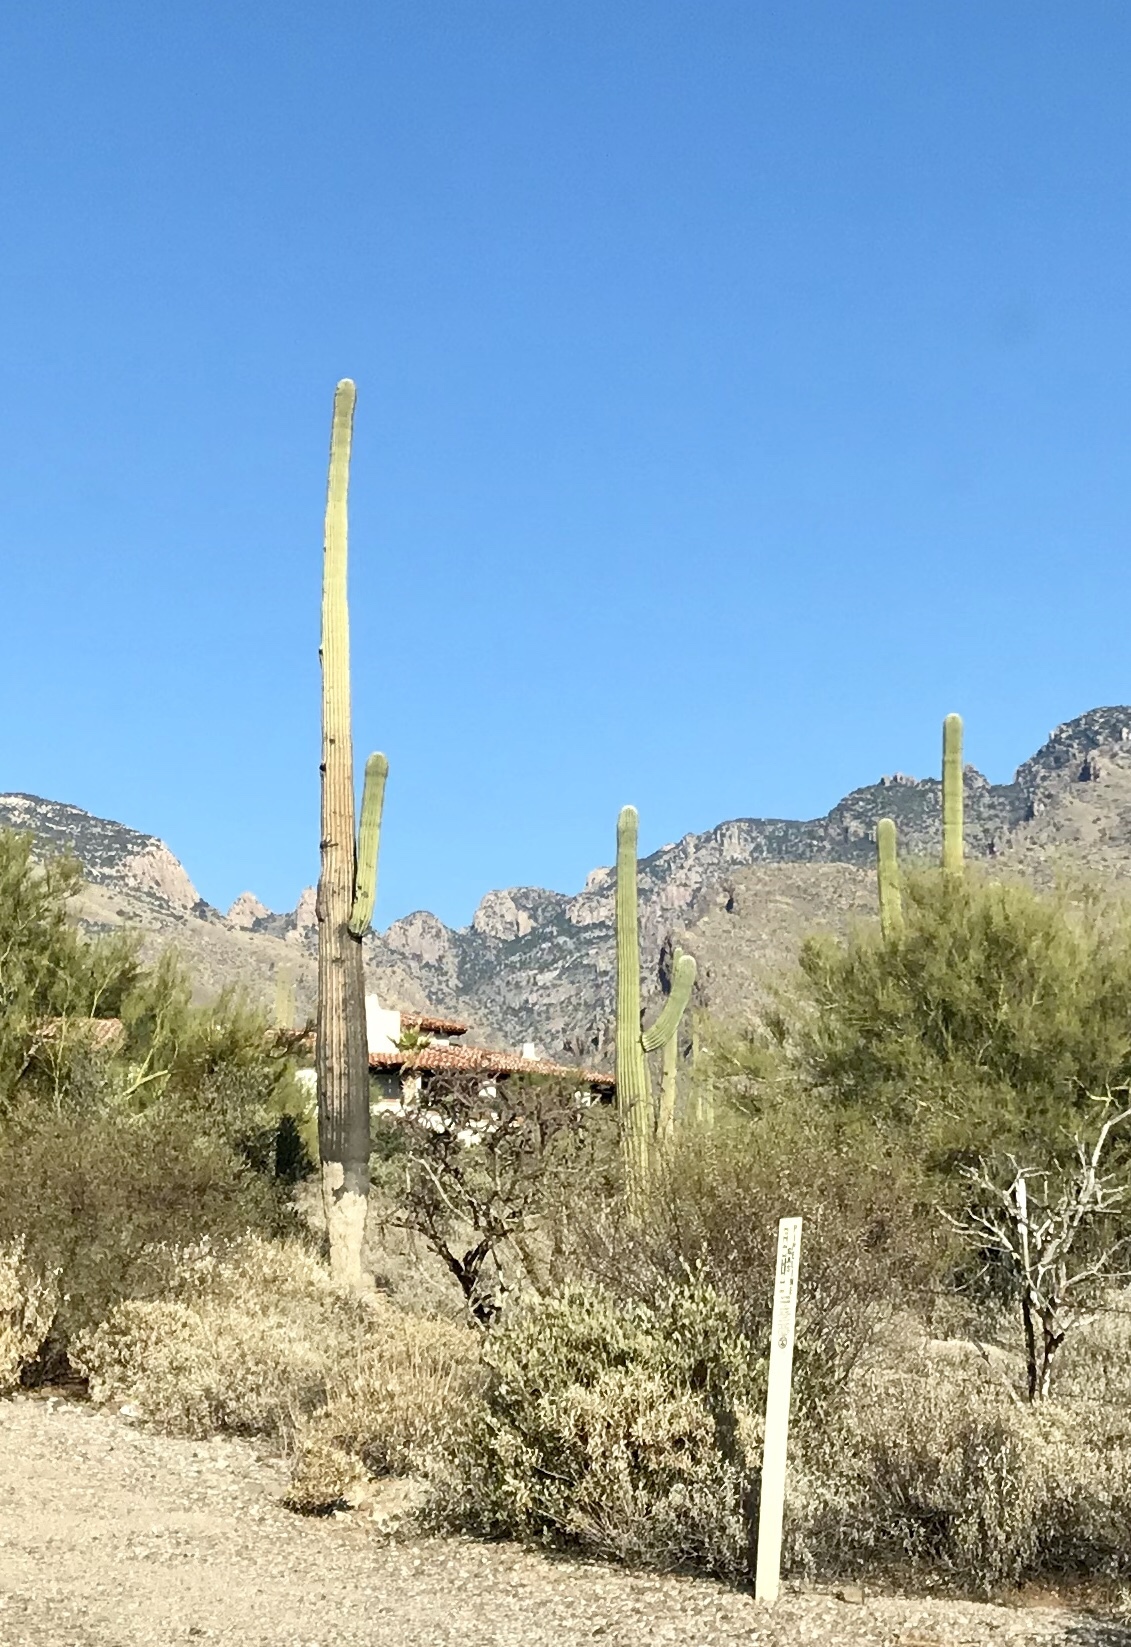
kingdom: Plantae
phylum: Tracheophyta
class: Magnoliopsida
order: Caryophyllales
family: Cactaceae
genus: Carnegiea
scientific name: Carnegiea gigantea
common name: Saguaro
